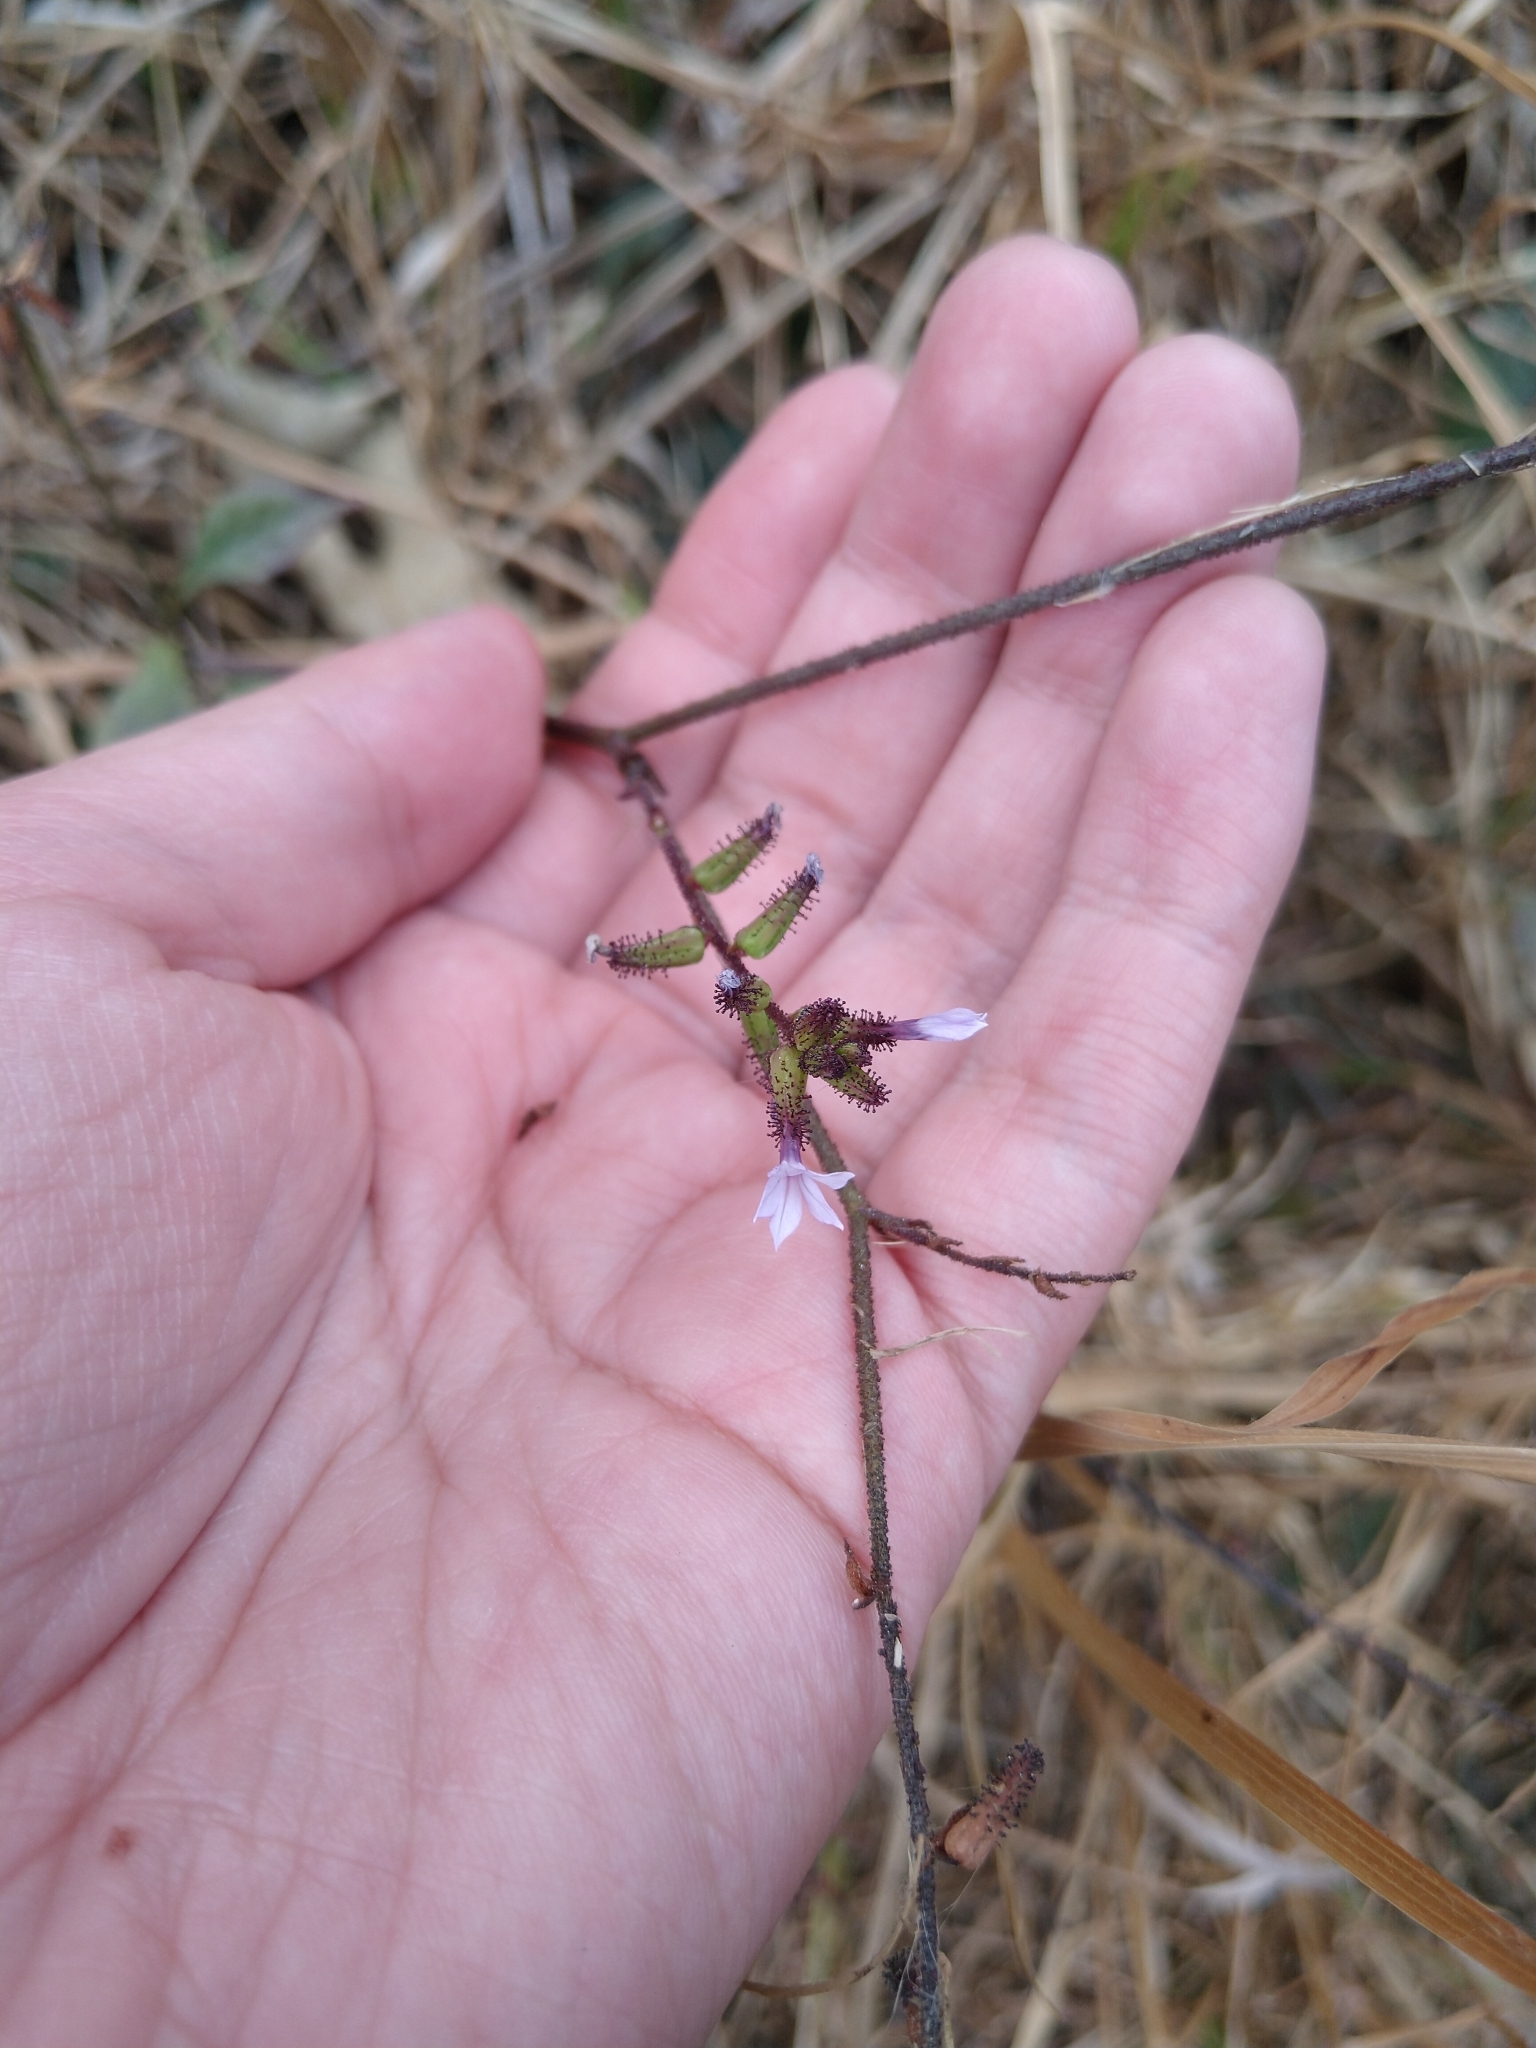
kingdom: Plantae
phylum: Tracheophyta
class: Magnoliopsida
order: Caryophyllales
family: Plumbaginaceae
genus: Plumbago
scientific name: Plumbago pulchella
